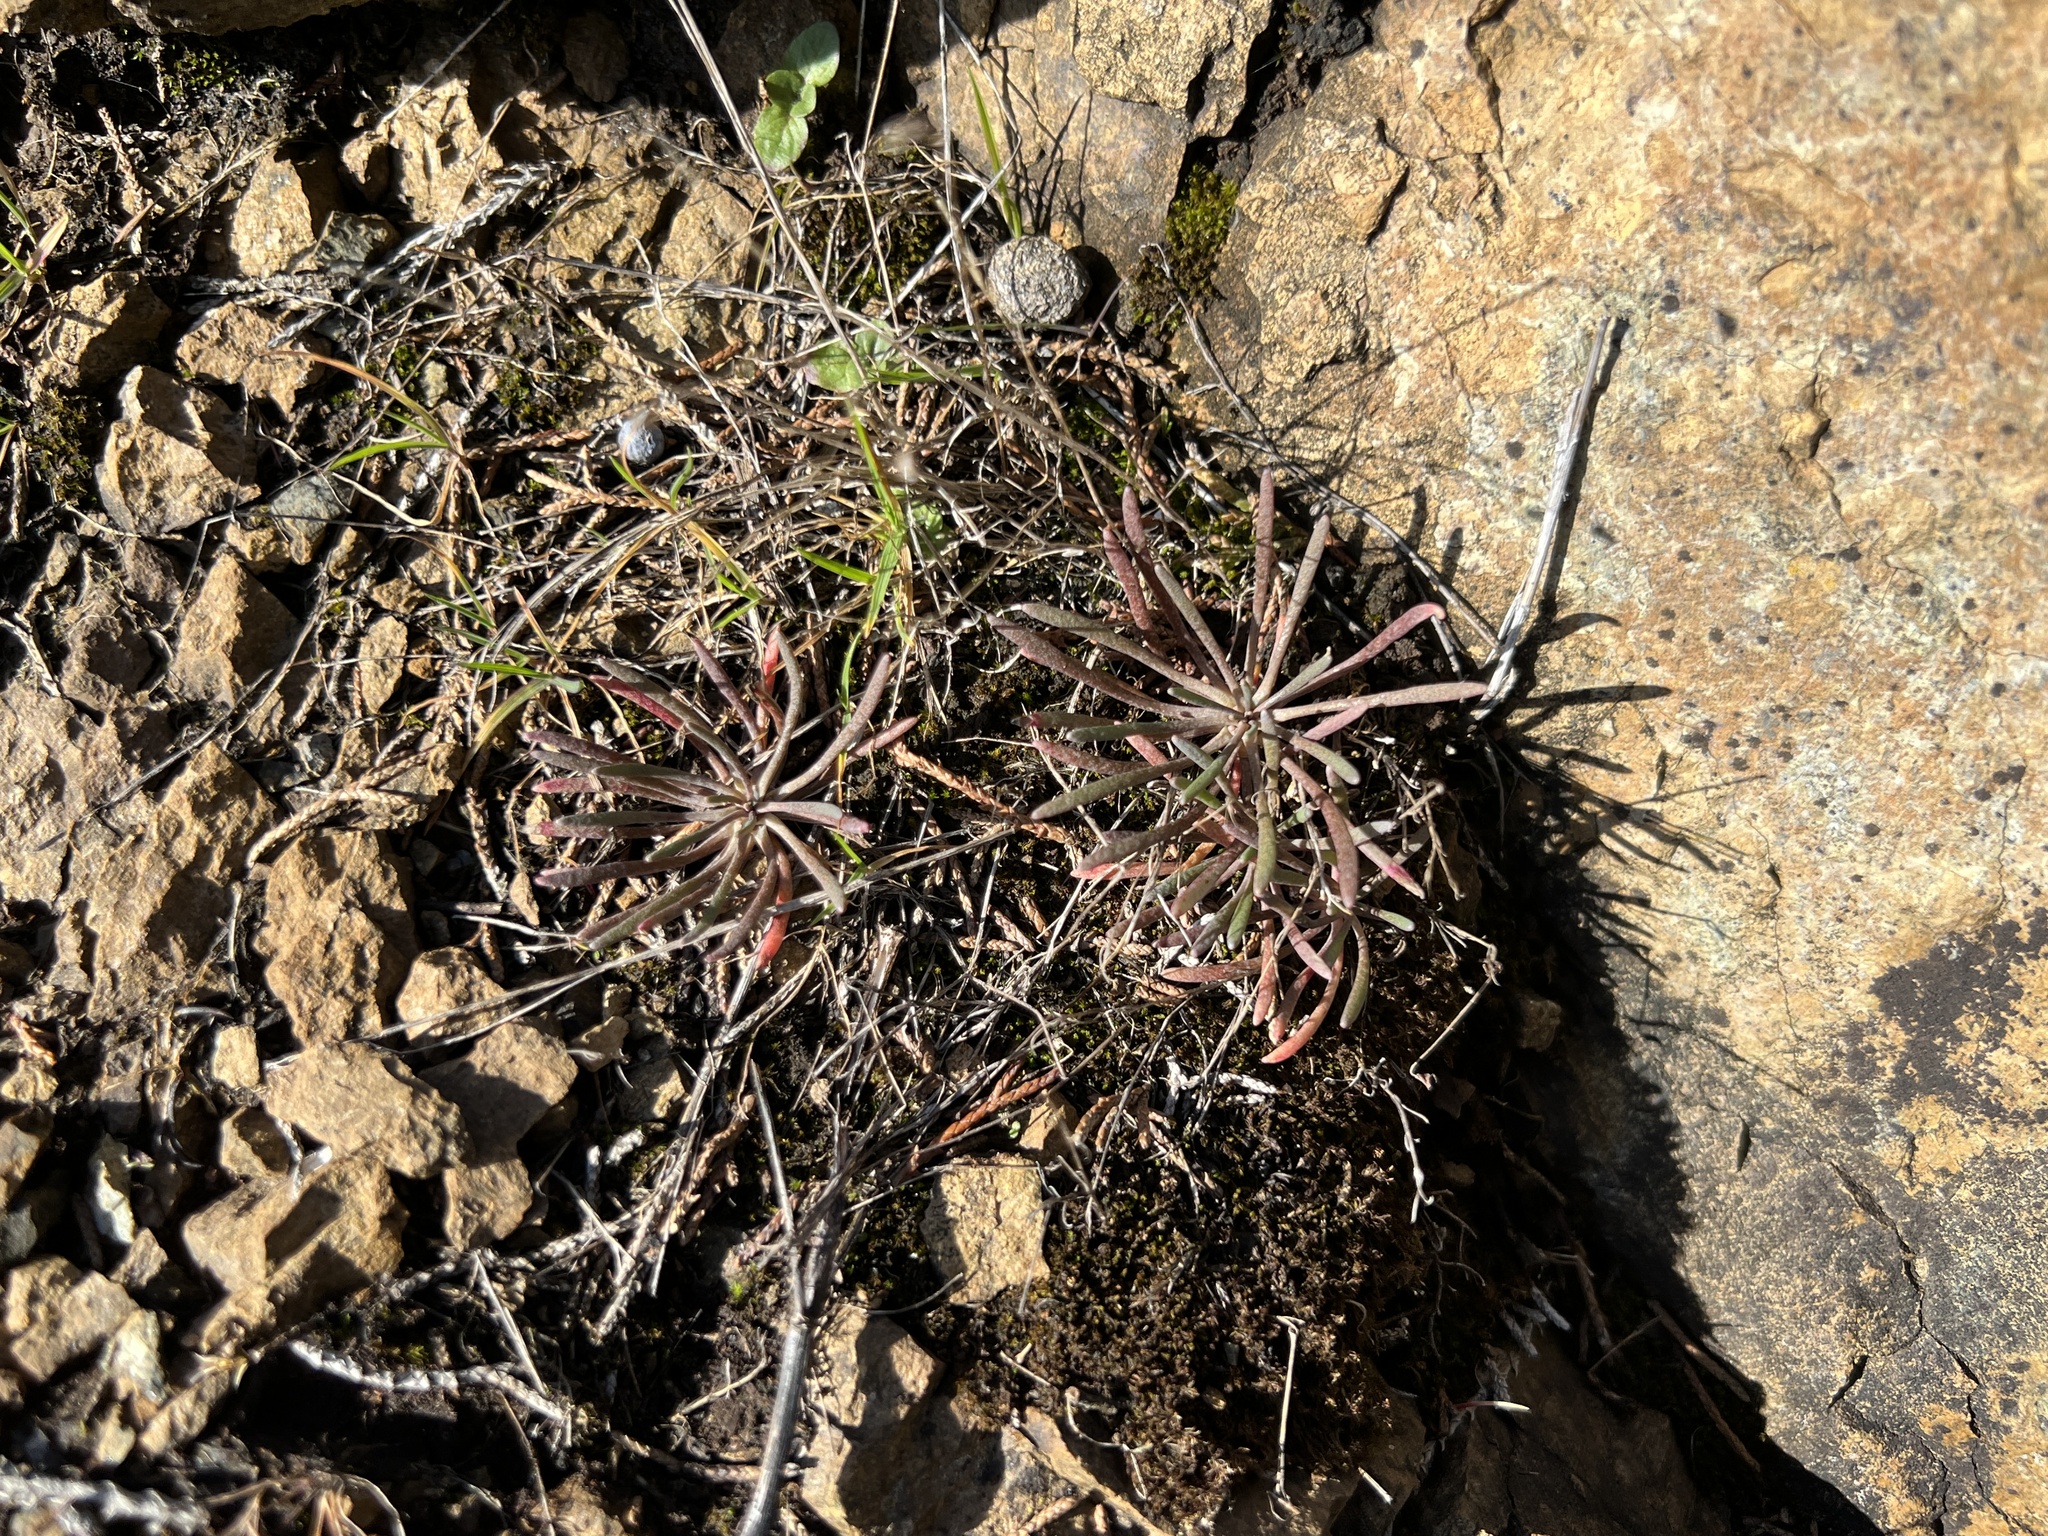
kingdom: Plantae
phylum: Tracheophyta
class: Magnoliopsida
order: Caryophyllales
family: Montiaceae
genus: Claytonia
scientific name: Claytonia exigua
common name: Pale spring beauty
